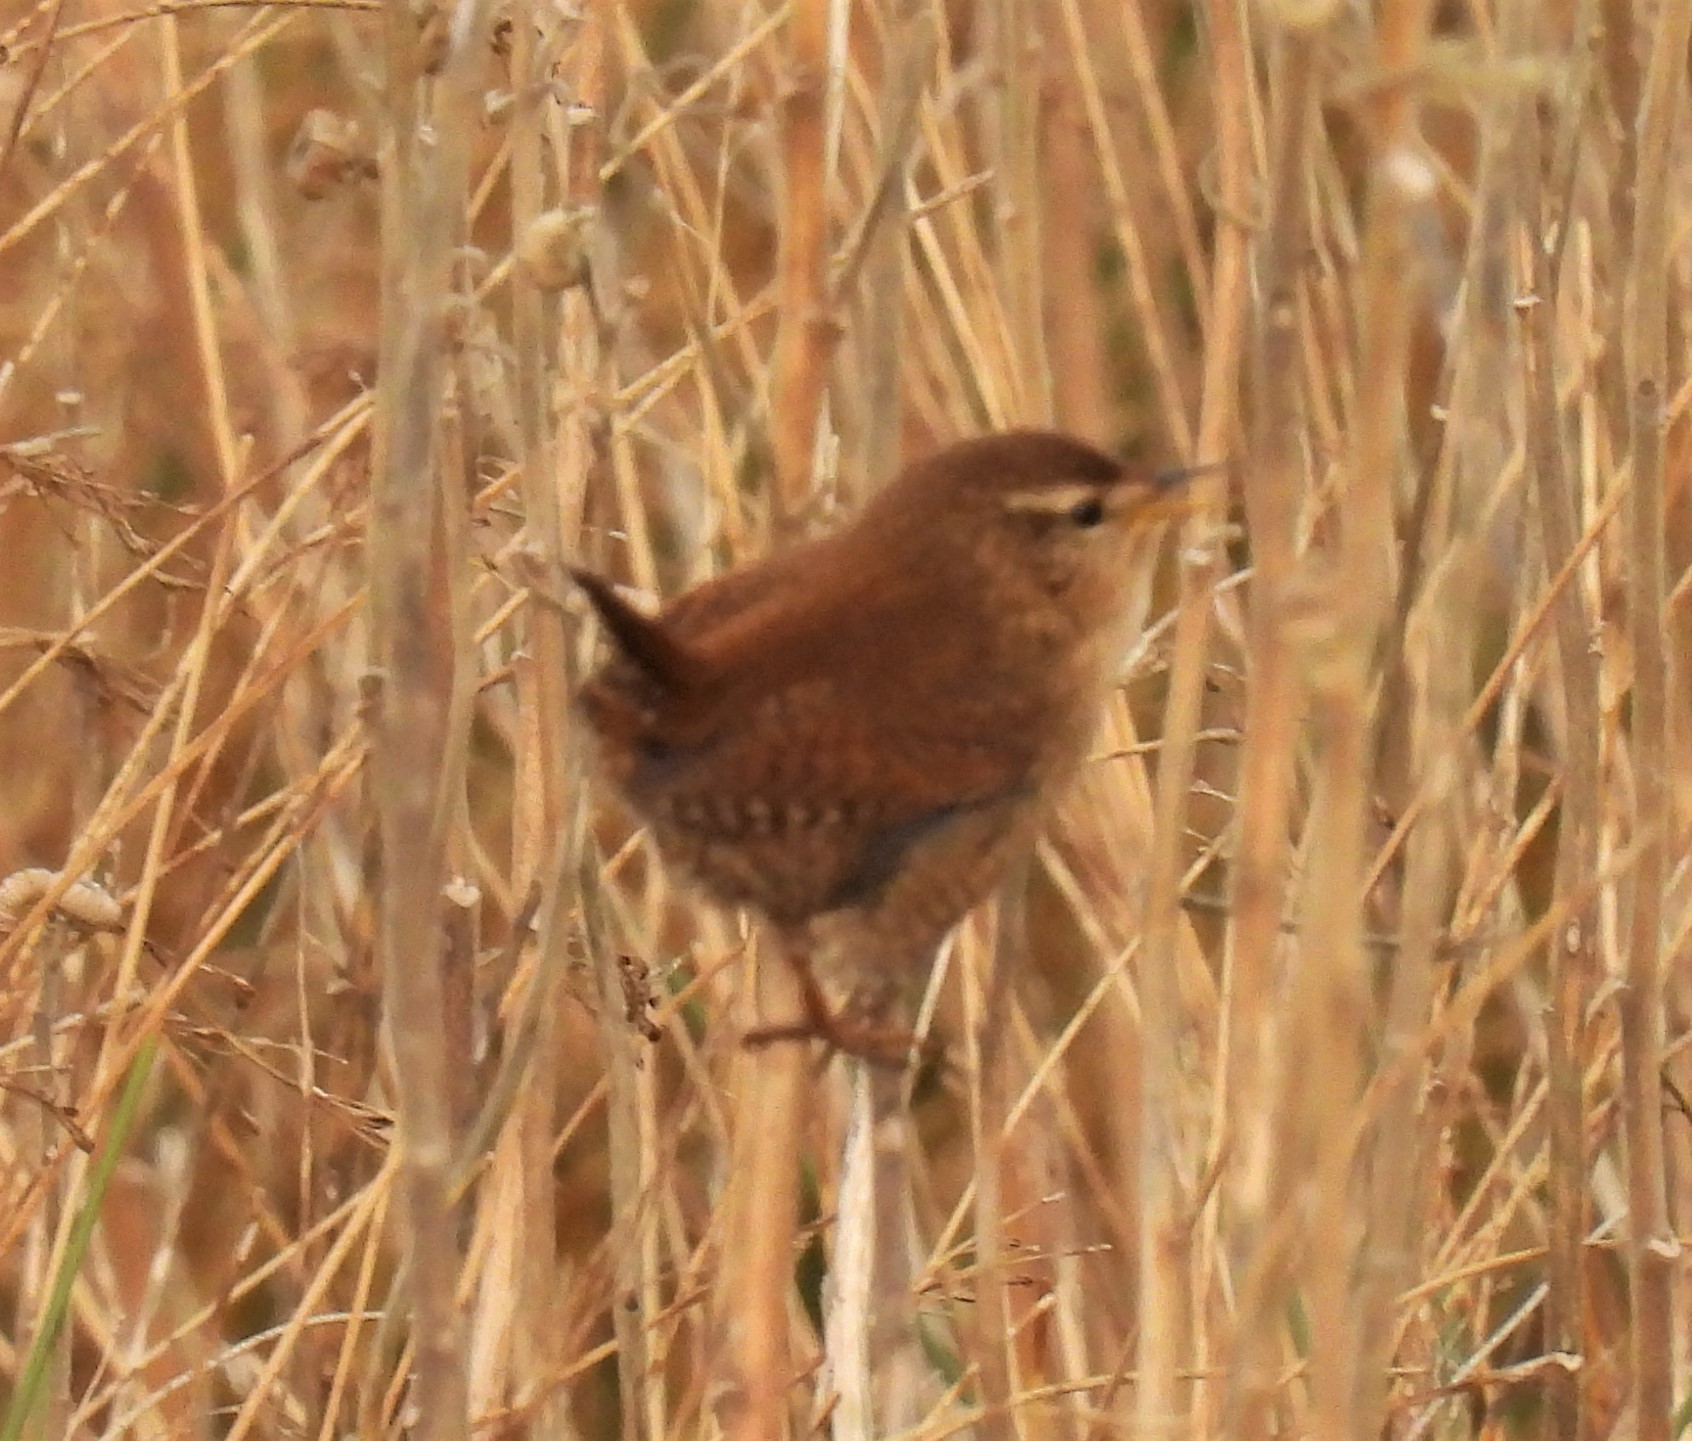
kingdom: Animalia
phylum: Chordata
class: Aves
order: Passeriformes
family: Troglodytidae
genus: Troglodytes
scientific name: Troglodytes troglodytes
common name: Eurasian wren
